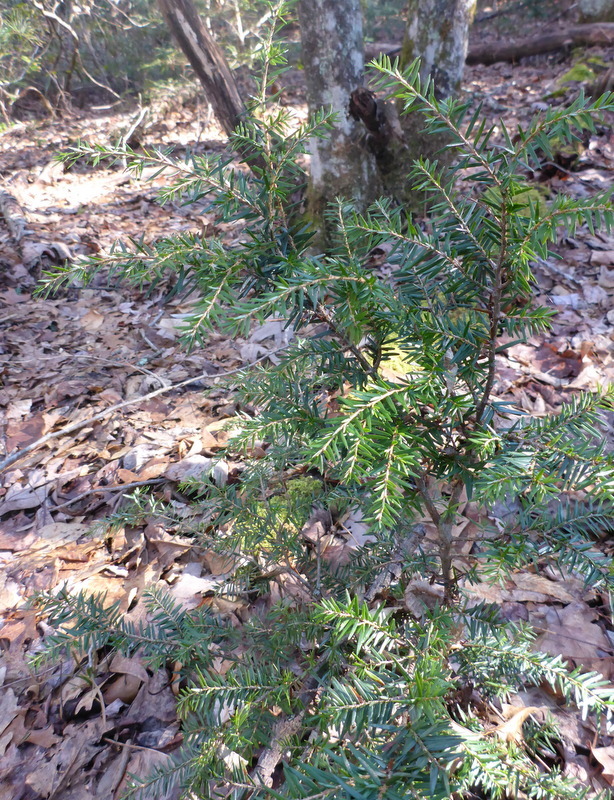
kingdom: Plantae
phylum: Tracheophyta
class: Pinopsida
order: Pinales
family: Pinaceae
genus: Tsuga
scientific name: Tsuga canadensis
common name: Eastern hemlock
